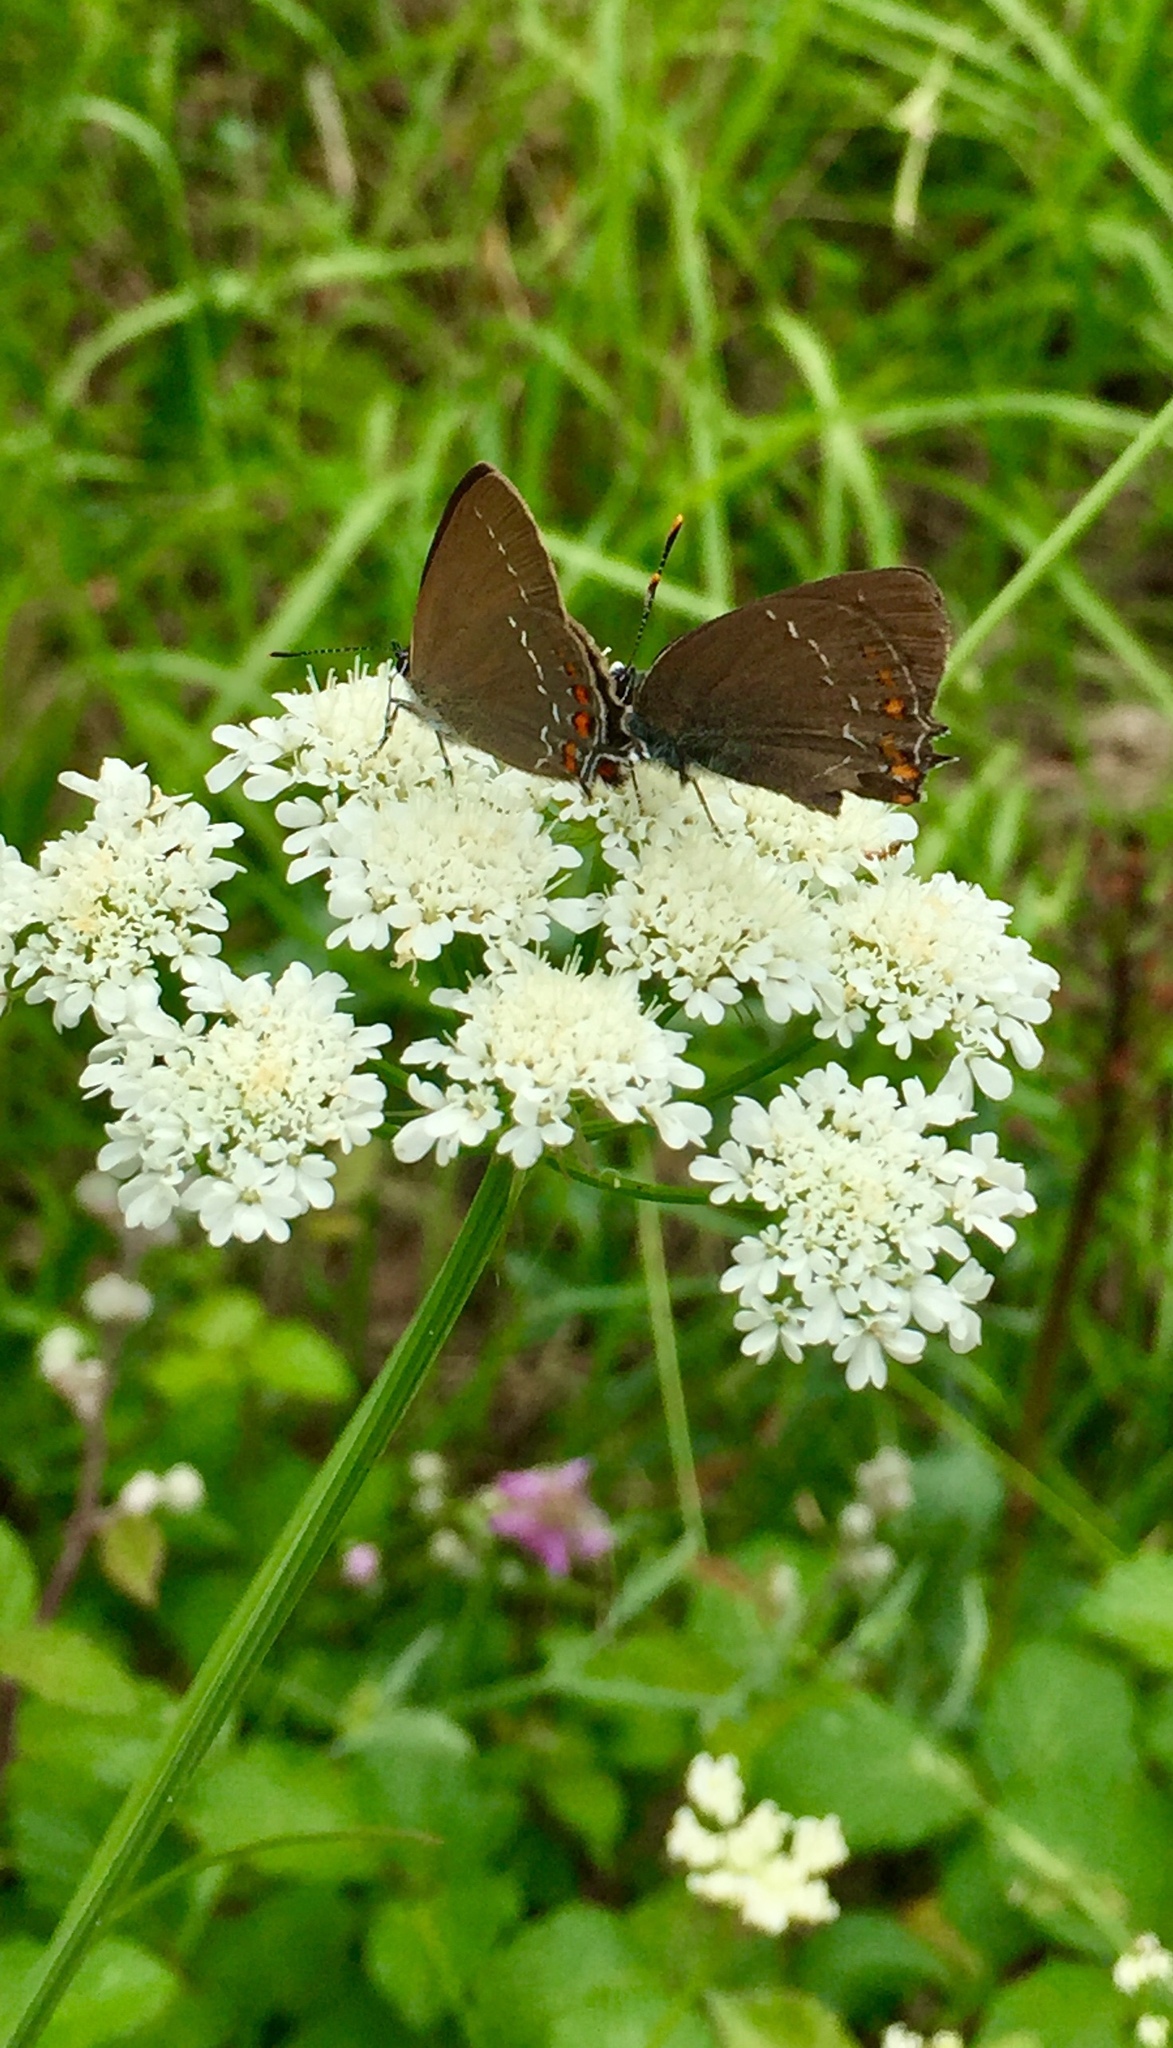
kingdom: Animalia
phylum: Arthropoda
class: Insecta
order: Lepidoptera
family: Lycaenidae
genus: Nordmannia
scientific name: Nordmannia ilicis
